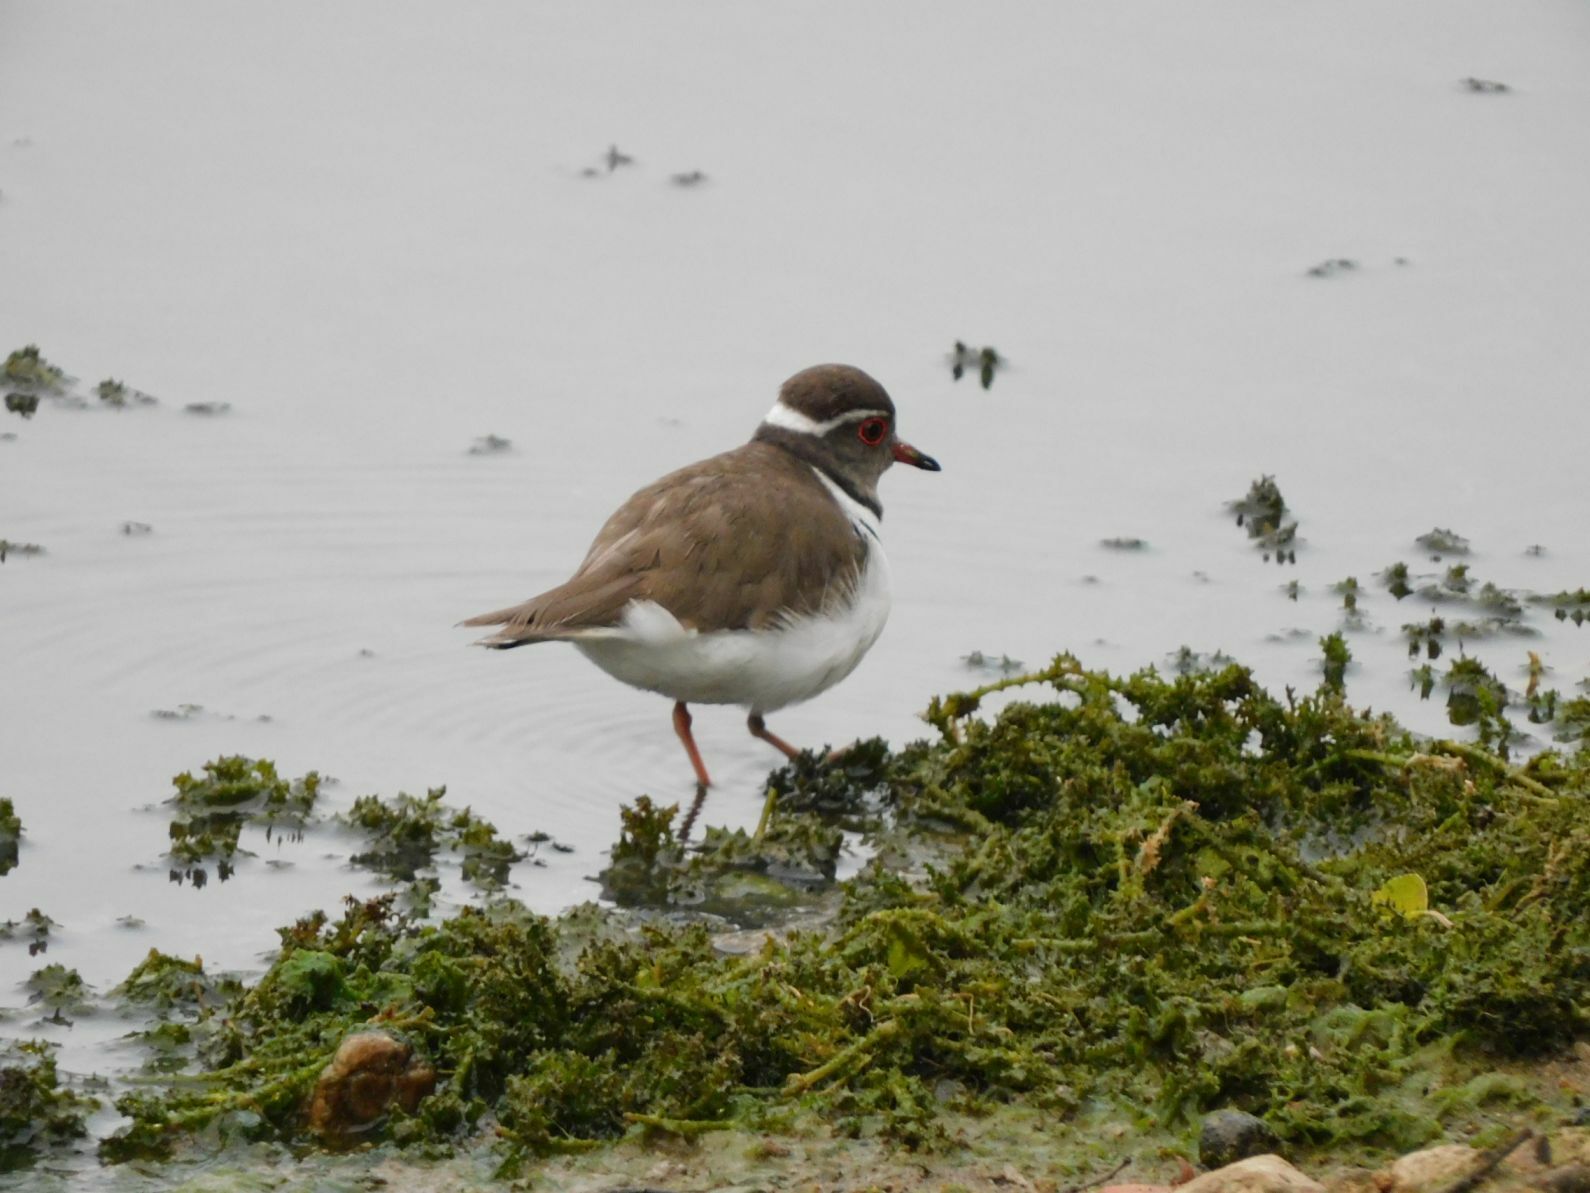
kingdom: Animalia
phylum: Chordata
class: Aves
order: Charadriiformes
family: Charadriidae
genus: Charadrius
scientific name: Charadrius tricollaris
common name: Three-banded plover
